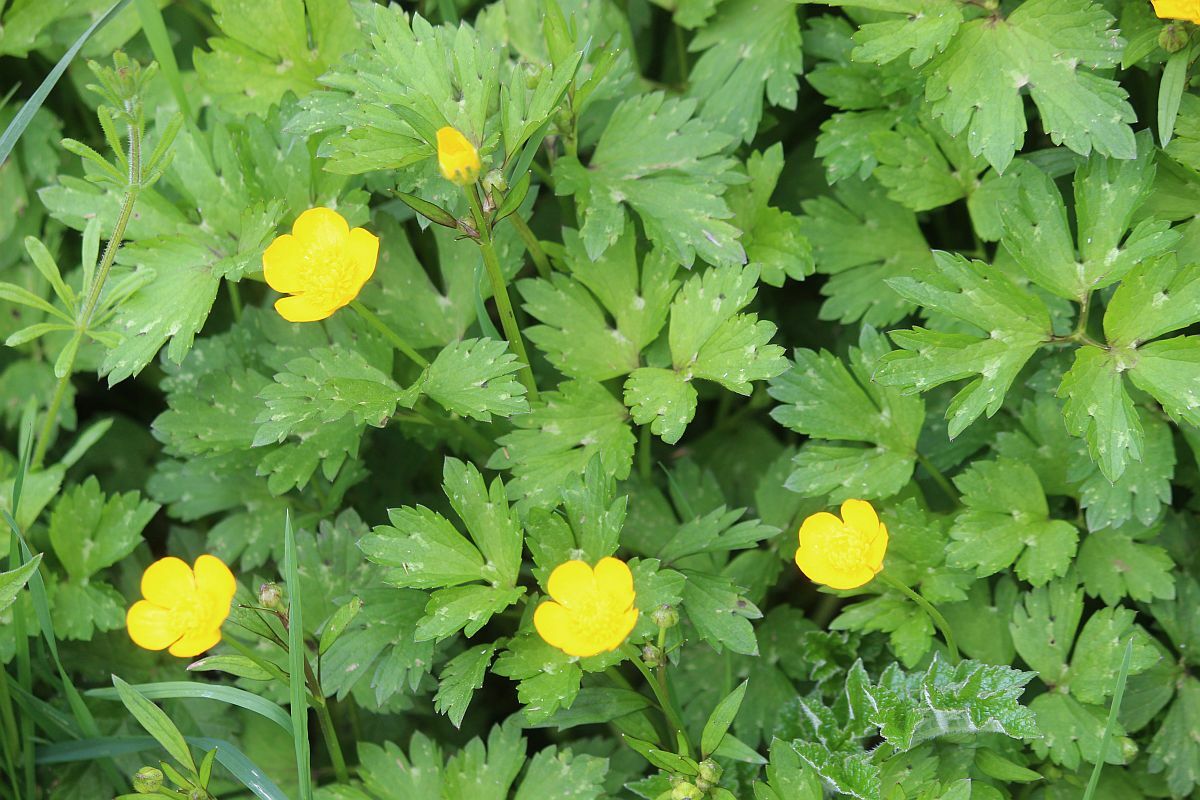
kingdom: Plantae
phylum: Tracheophyta
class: Magnoliopsida
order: Ranunculales
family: Ranunculaceae
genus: Ranunculus
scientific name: Ranunculus repens
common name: Creeping buttercup
